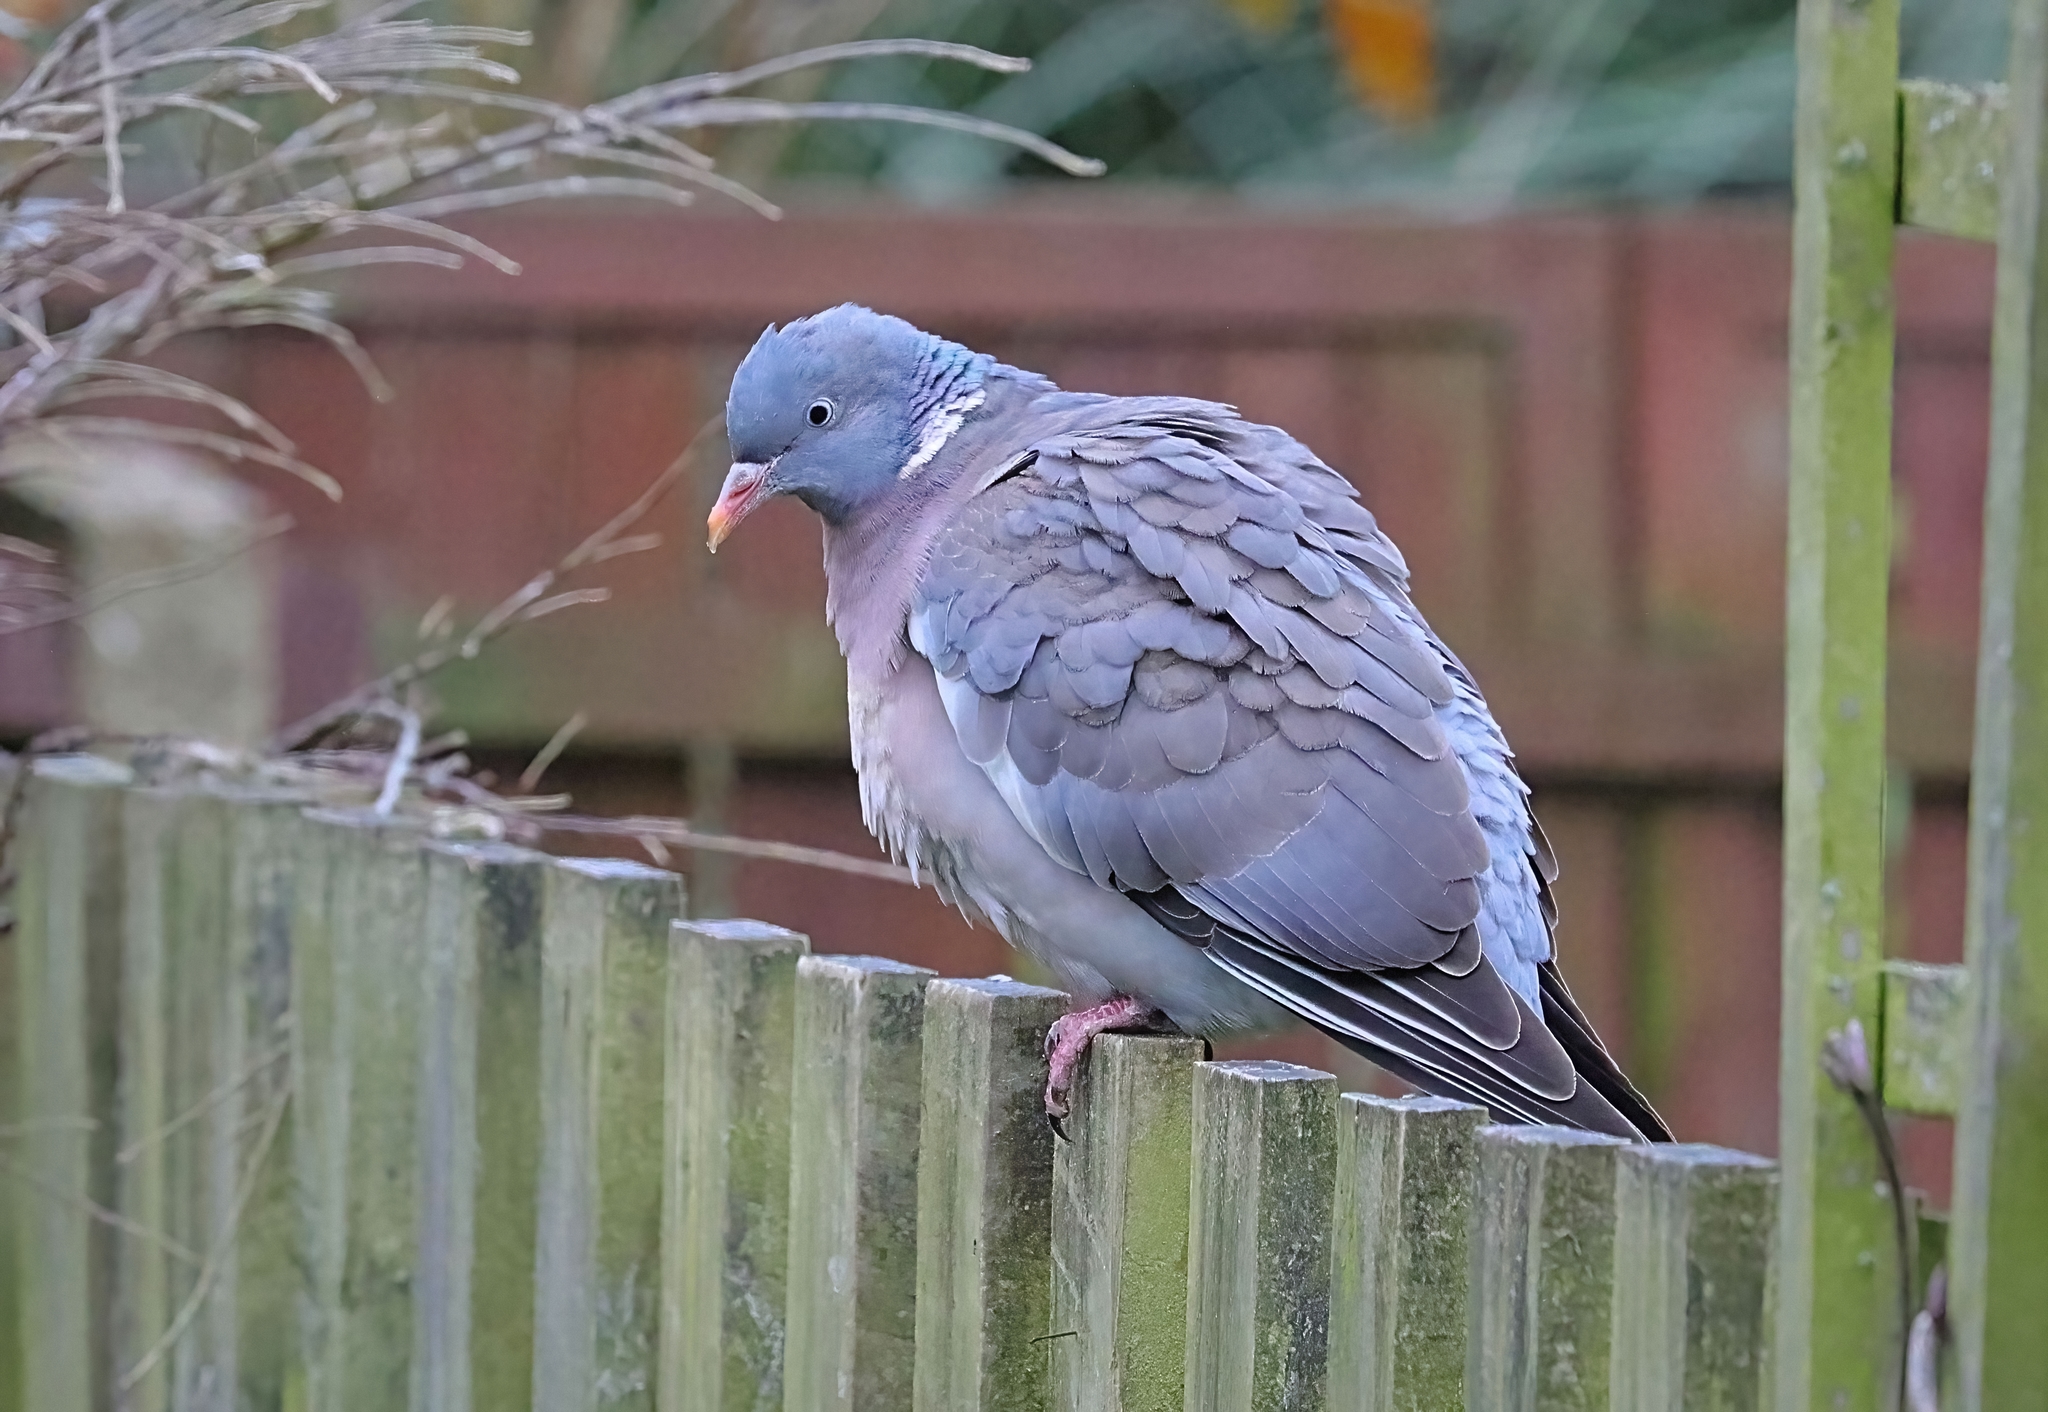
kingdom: Animalia
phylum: Chordata
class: Aves
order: Columbiformes
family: Columbidae
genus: Columba
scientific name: Columba palumbus
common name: Common wood pigeon
